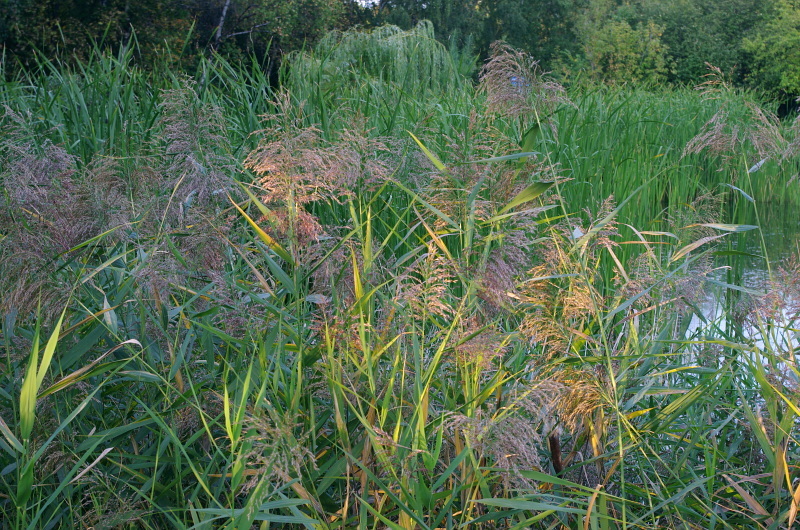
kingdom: Plantae
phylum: Tracheophyta
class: Liliopsida
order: Poales
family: Poaceae
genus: Phragmites
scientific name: Phragmites australis
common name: Common reed
